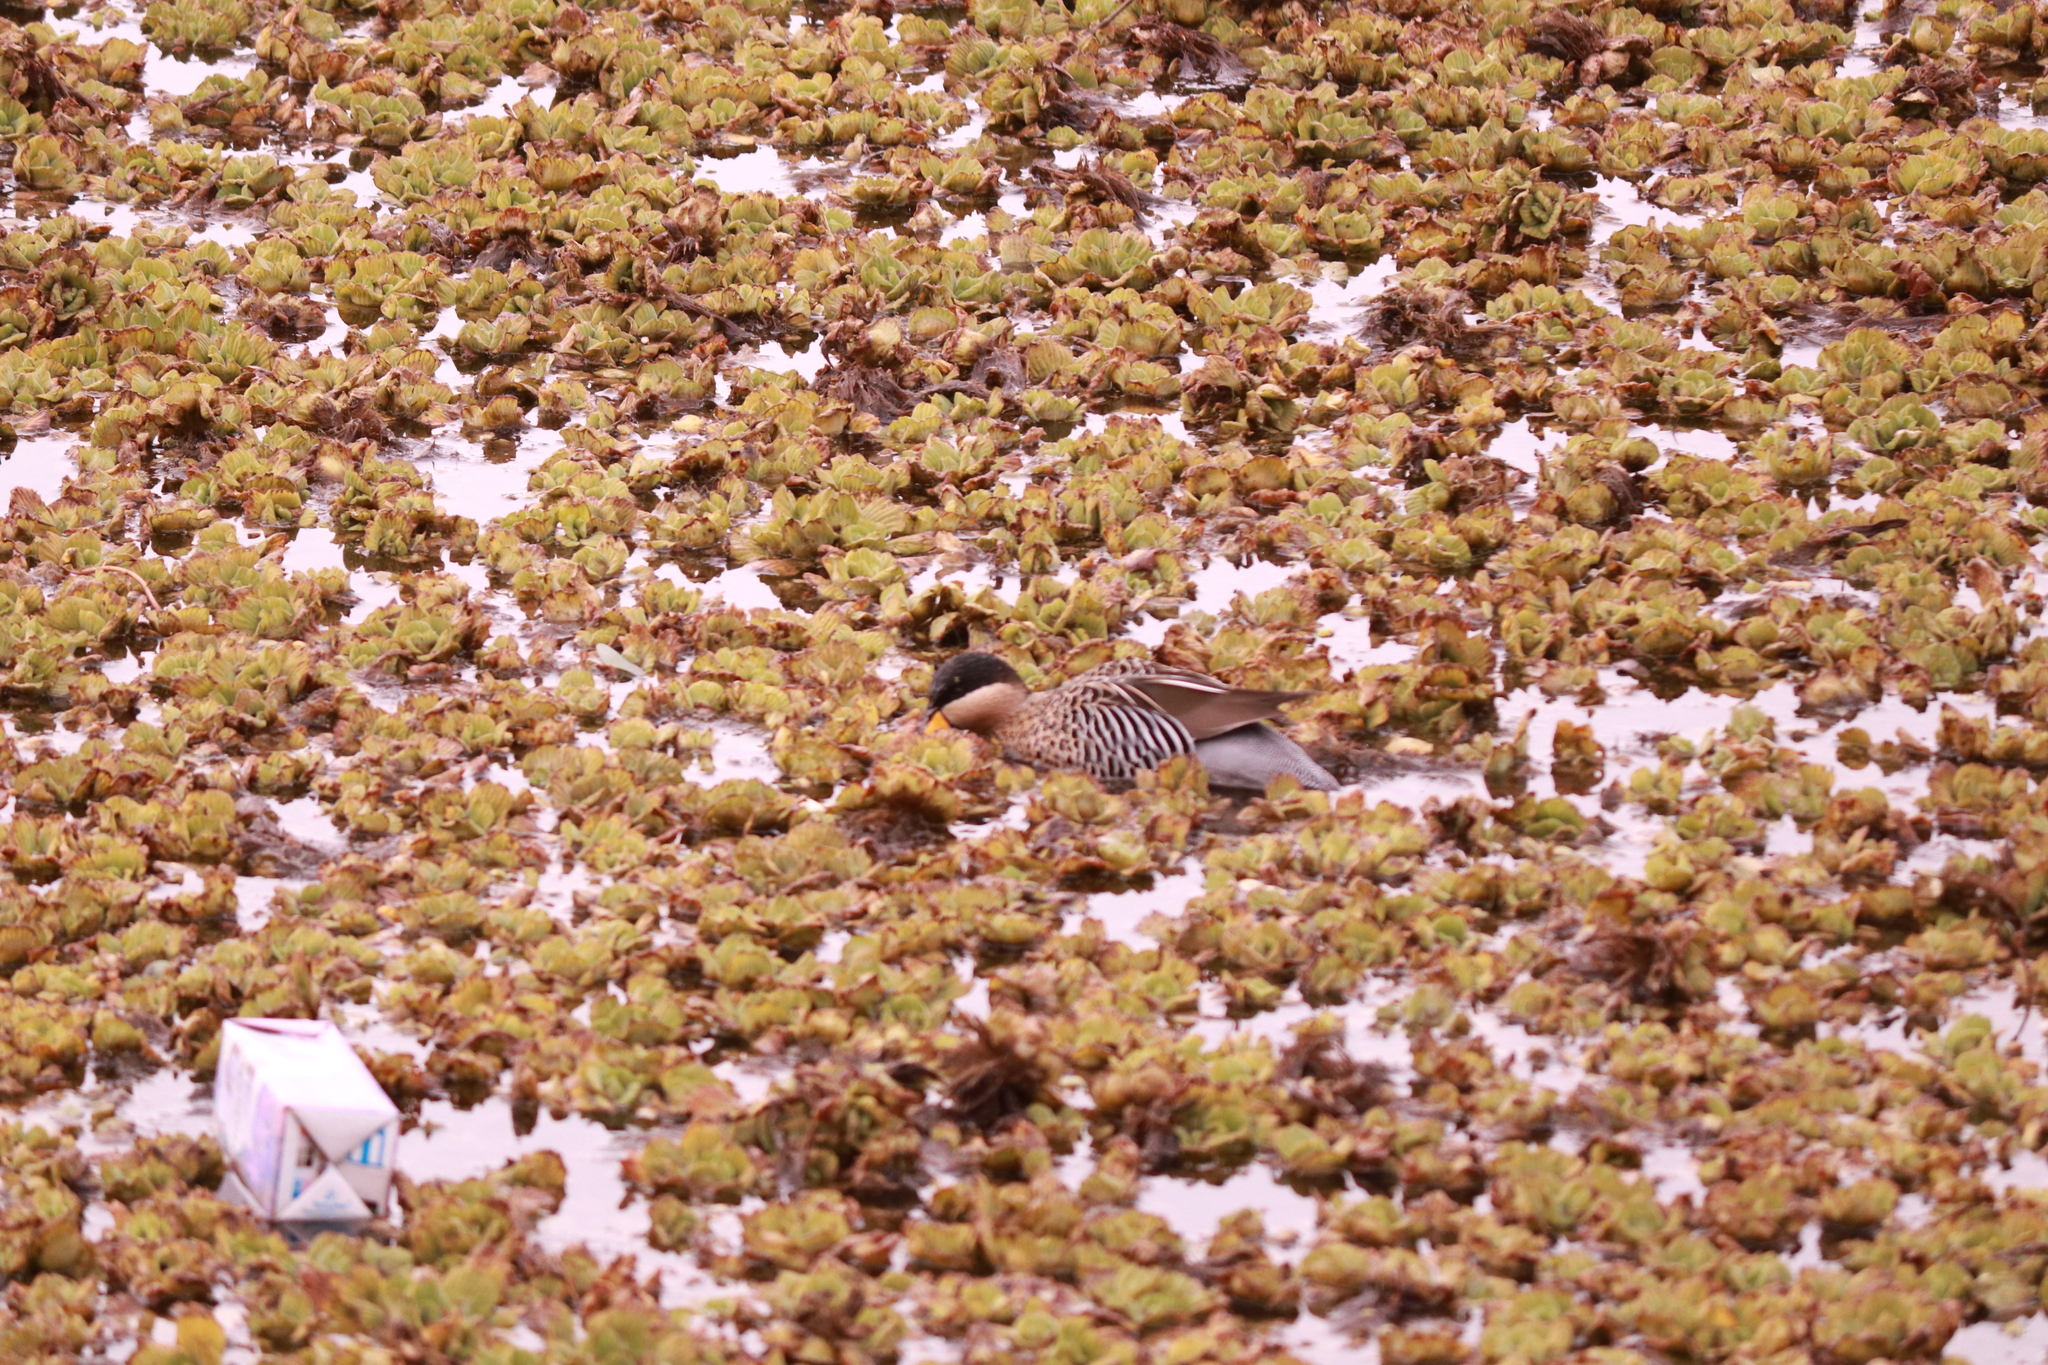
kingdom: Animalia
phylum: Chordata
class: Aves
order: Anseriformes
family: Anatidae
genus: Spatula
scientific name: Spatula versicolor
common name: Silver teal
